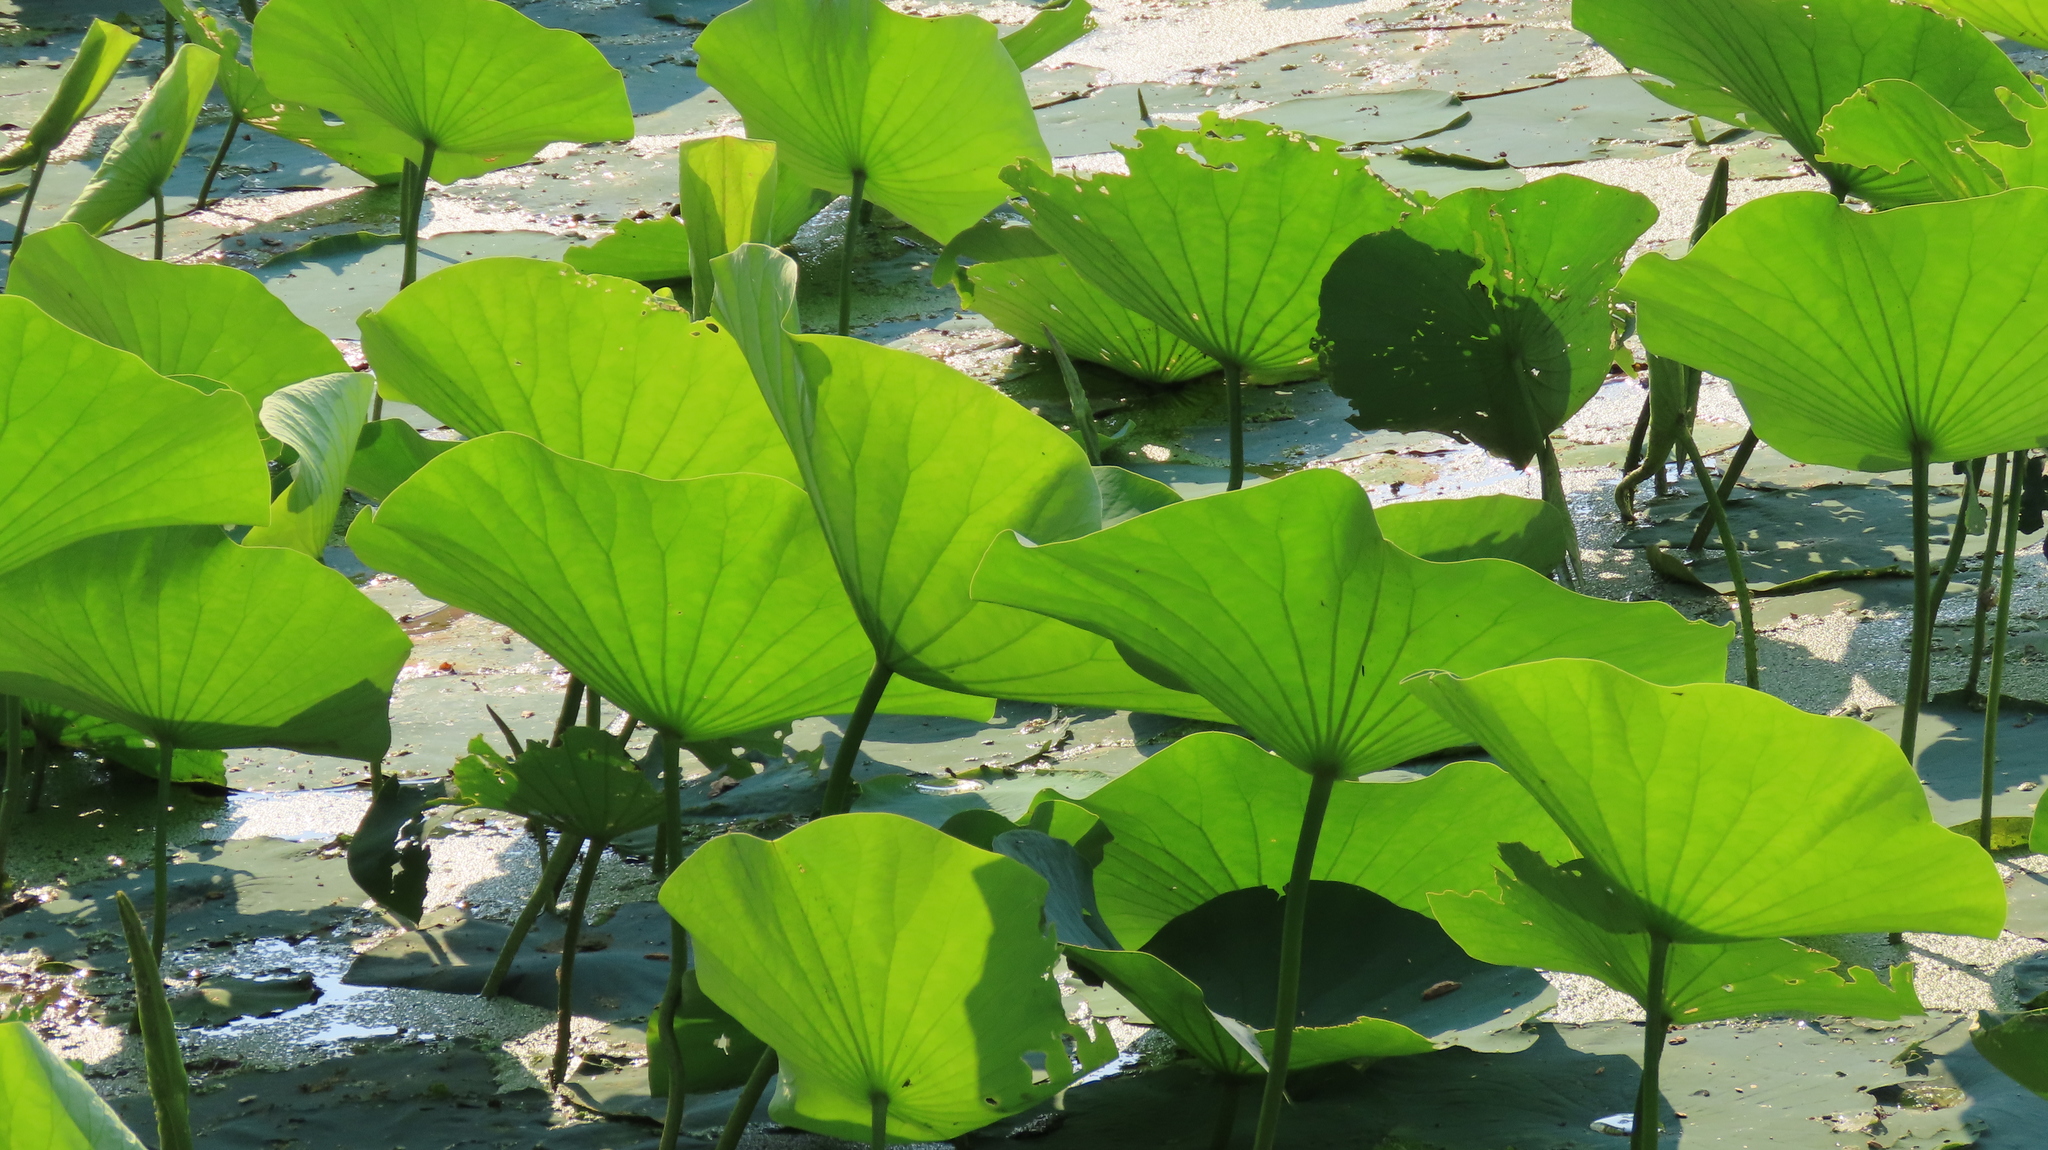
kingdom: Plantae
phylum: Tracheophyta
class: Magnoliopsida
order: Proteales
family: Nelumbonaceae
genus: Nelumbo
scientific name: Nelumbo lutea
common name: American lotus
